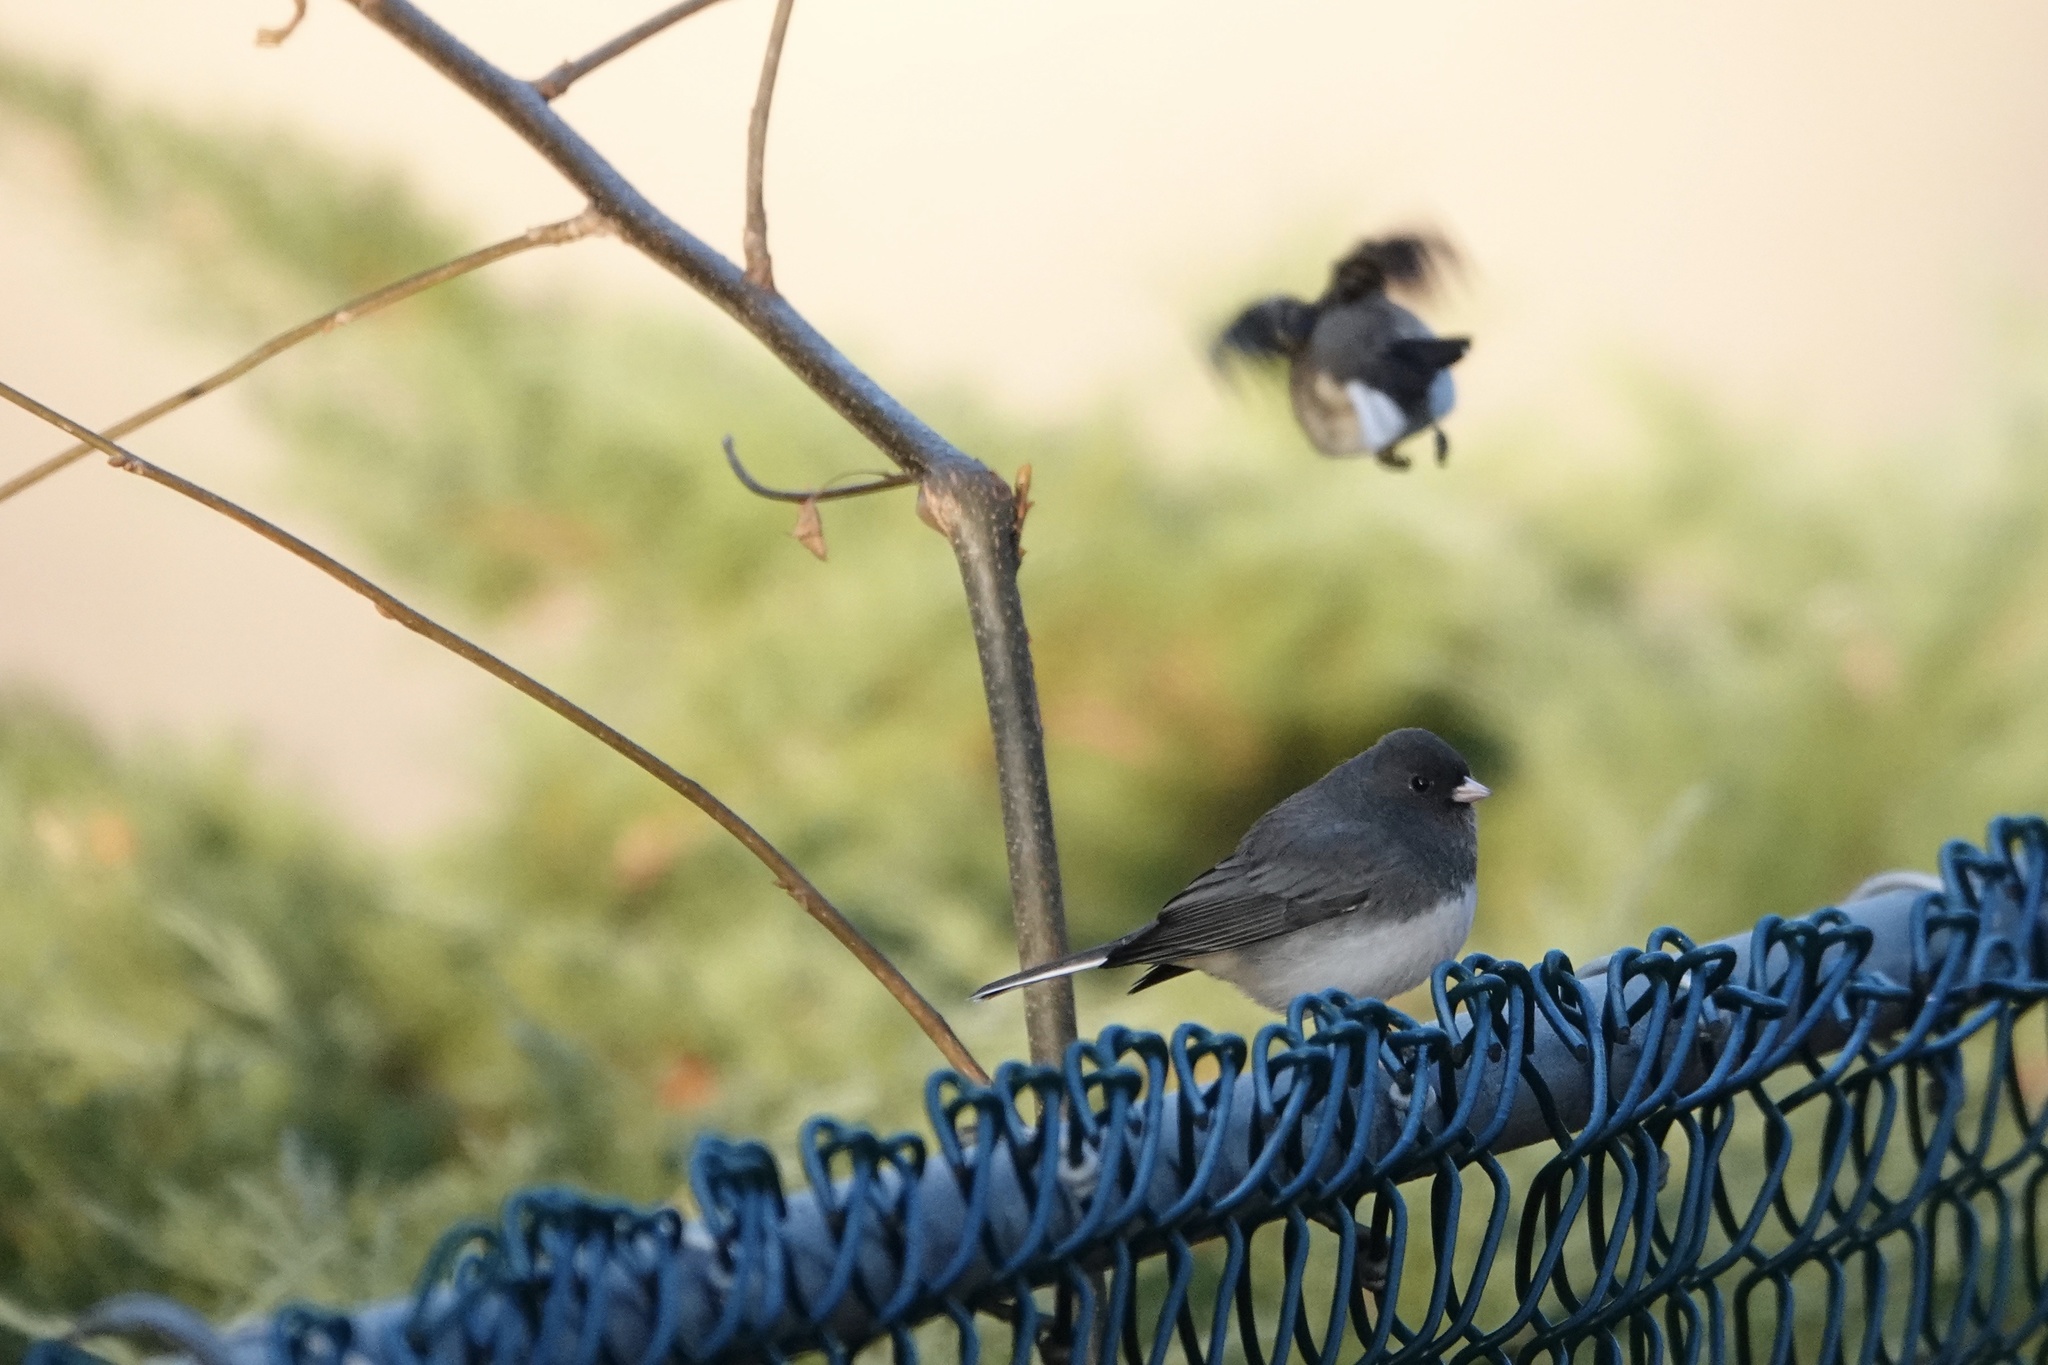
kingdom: Animalia
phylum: Chordata
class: Aves
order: Passeriformes
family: Passerellidae
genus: Junco
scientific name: Junco hyemalis
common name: Dark-eyed junco
